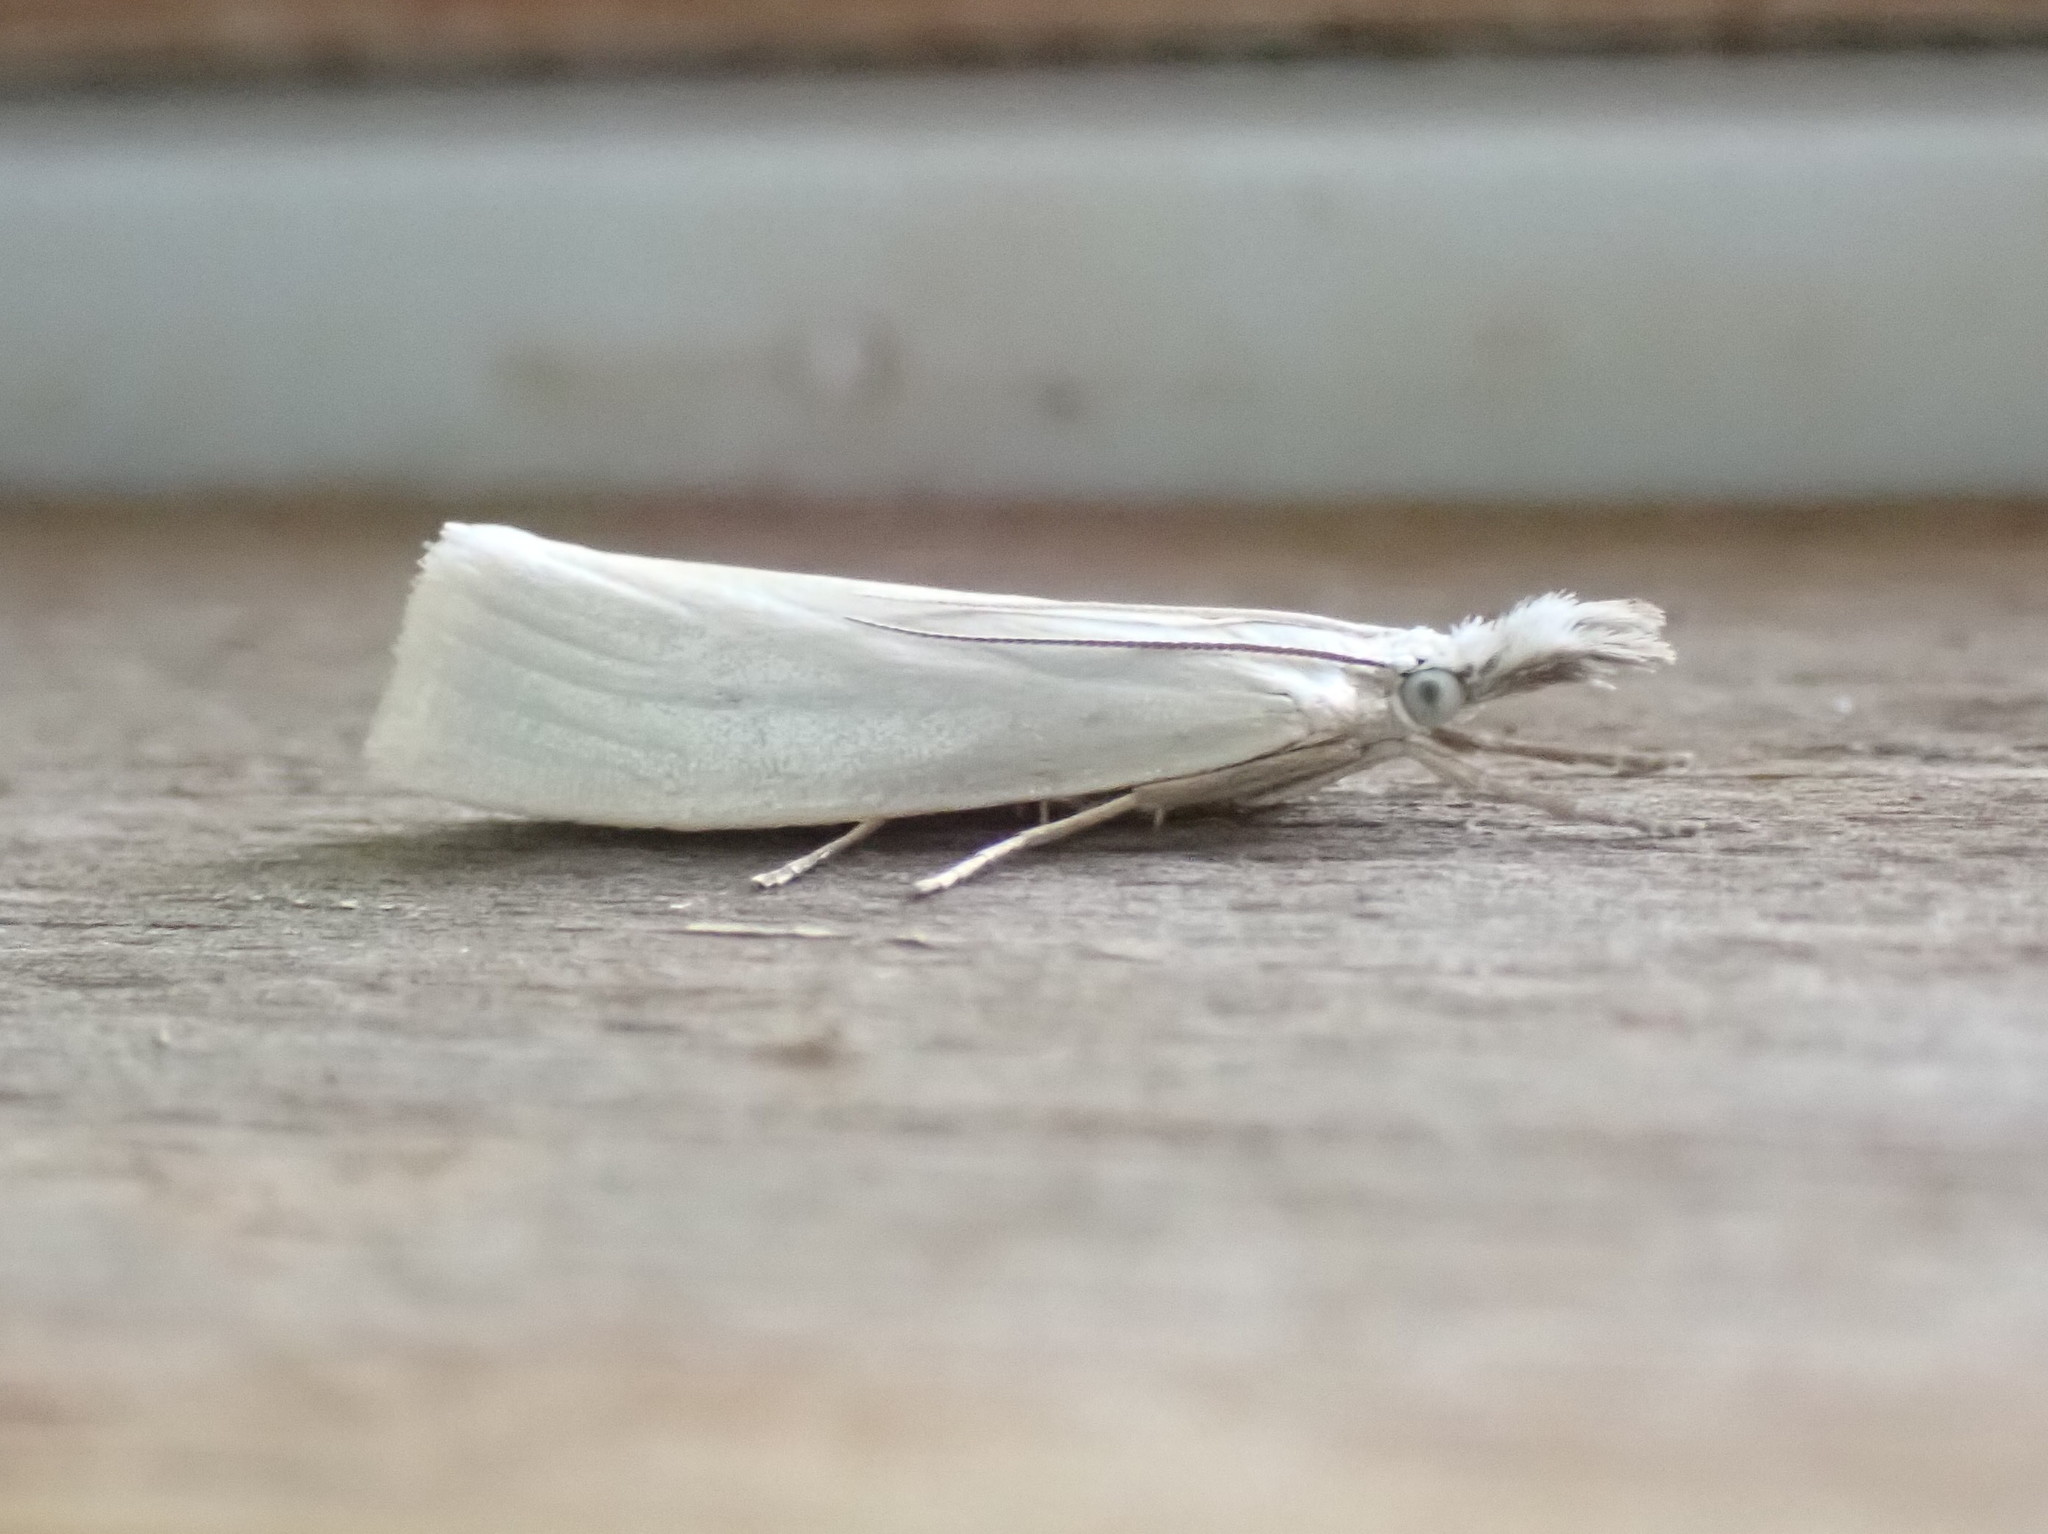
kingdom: Animalia
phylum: Arthropoda
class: Insecta
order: Lepidoptera
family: Crambidae
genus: Crambus
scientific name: Crambus perlellus
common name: Yellow satin veneer
